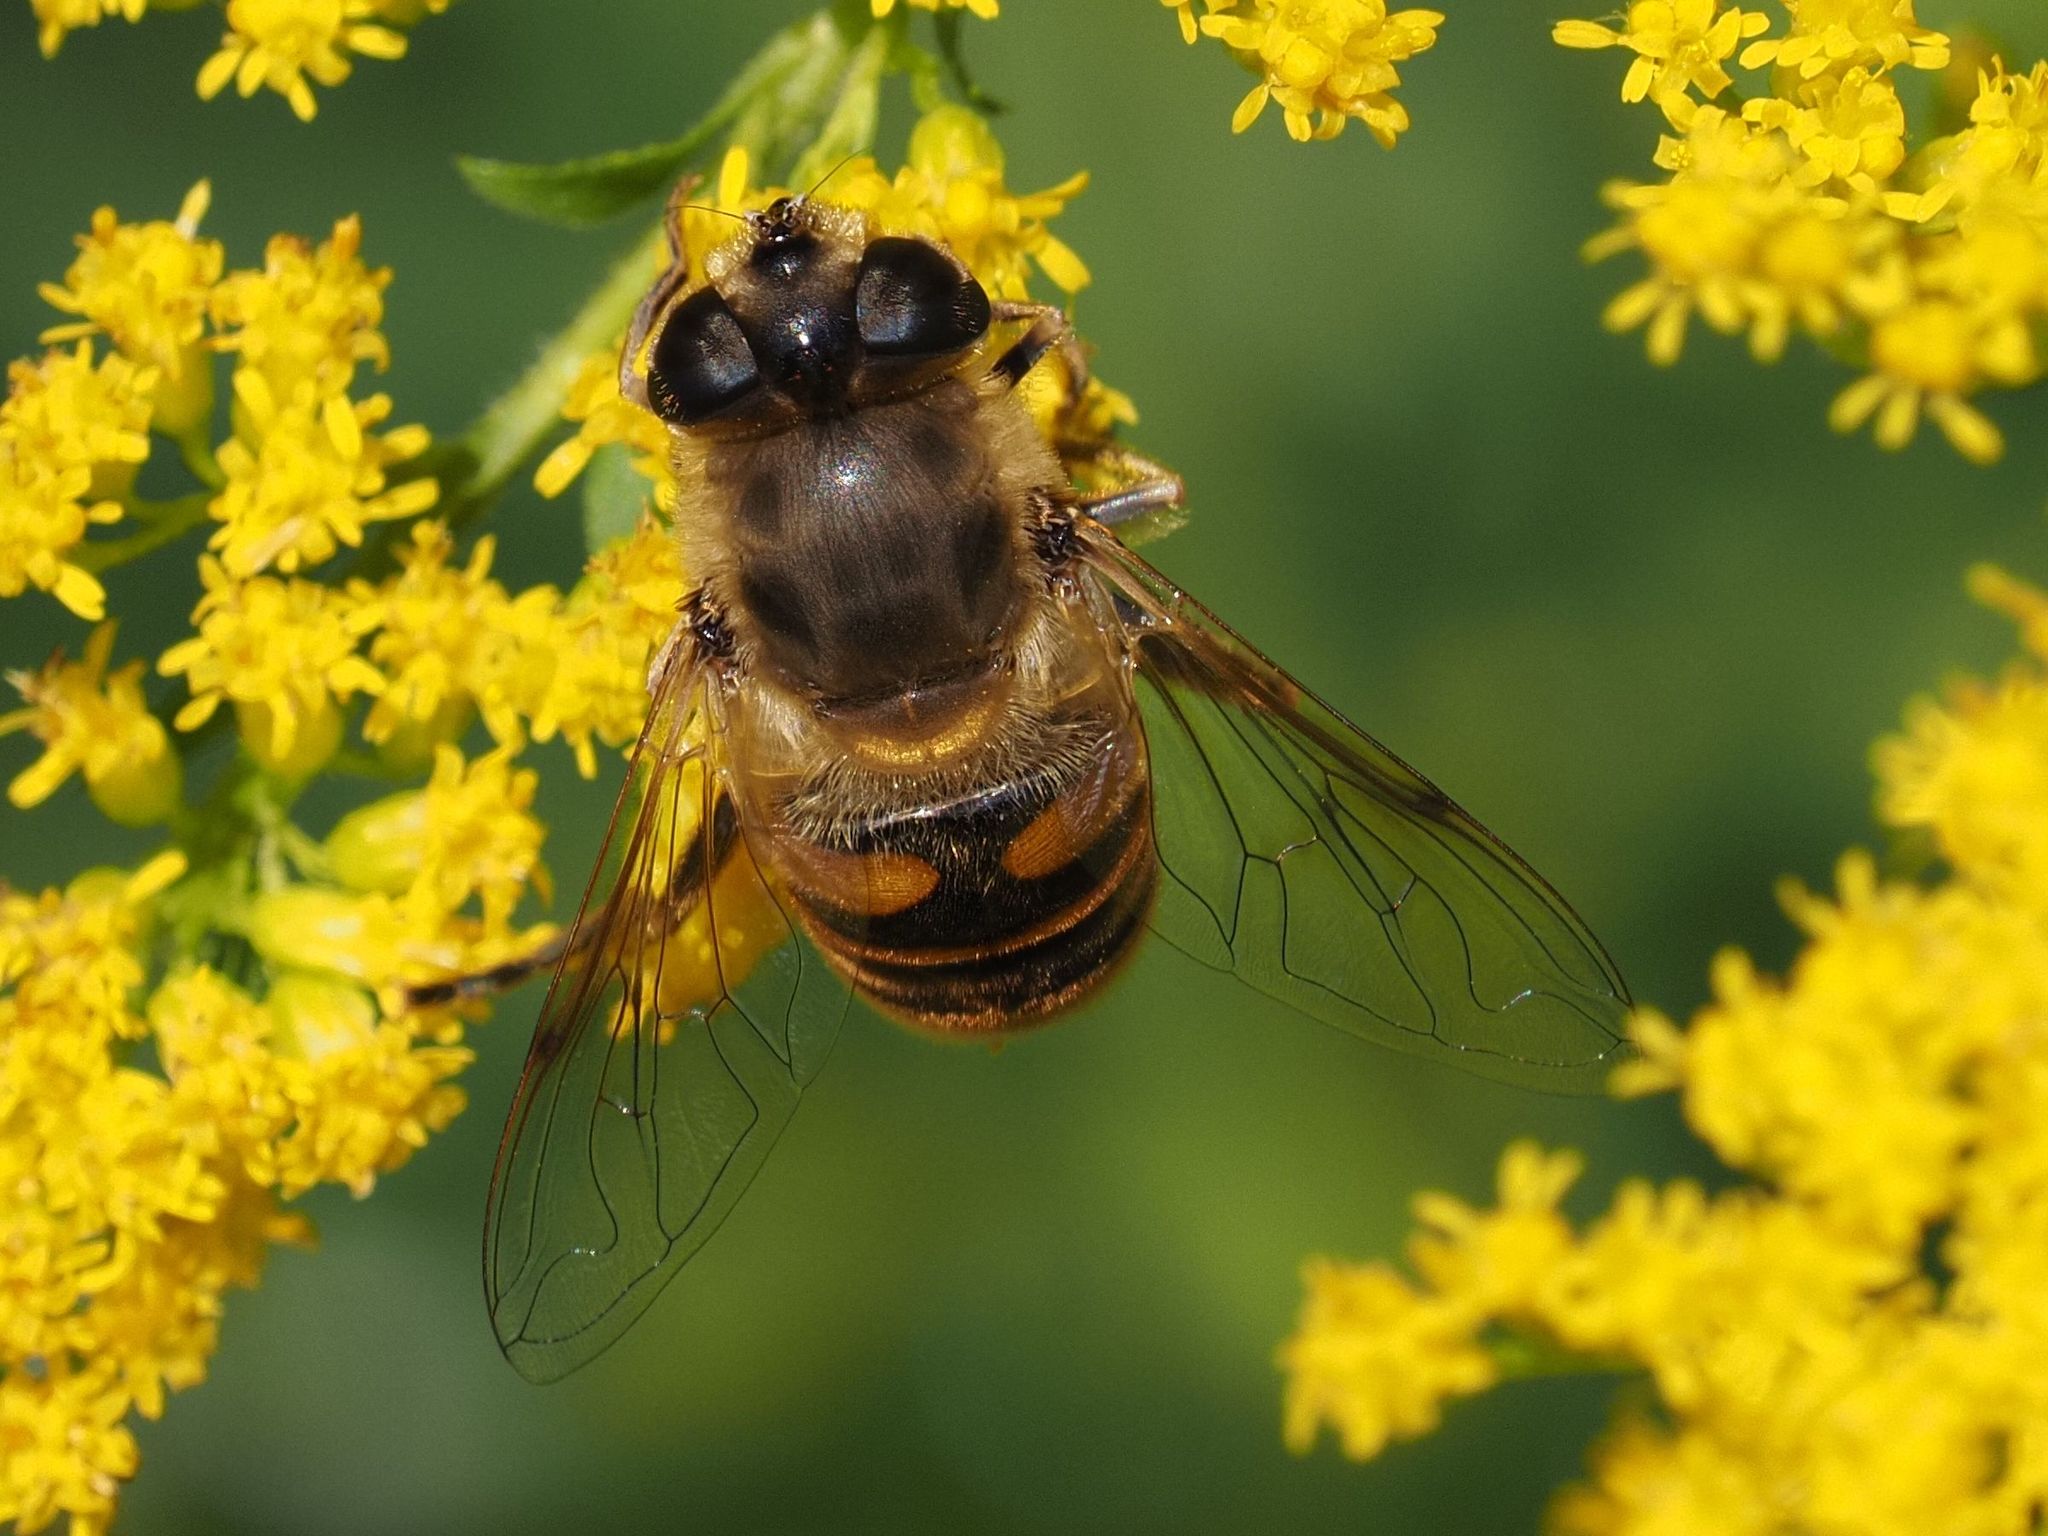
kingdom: Animalia
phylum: Arthropoda
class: Insecta
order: Diptera
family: Syrphidae
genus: Eristalis
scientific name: Eristalis tenax
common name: Drone fly
